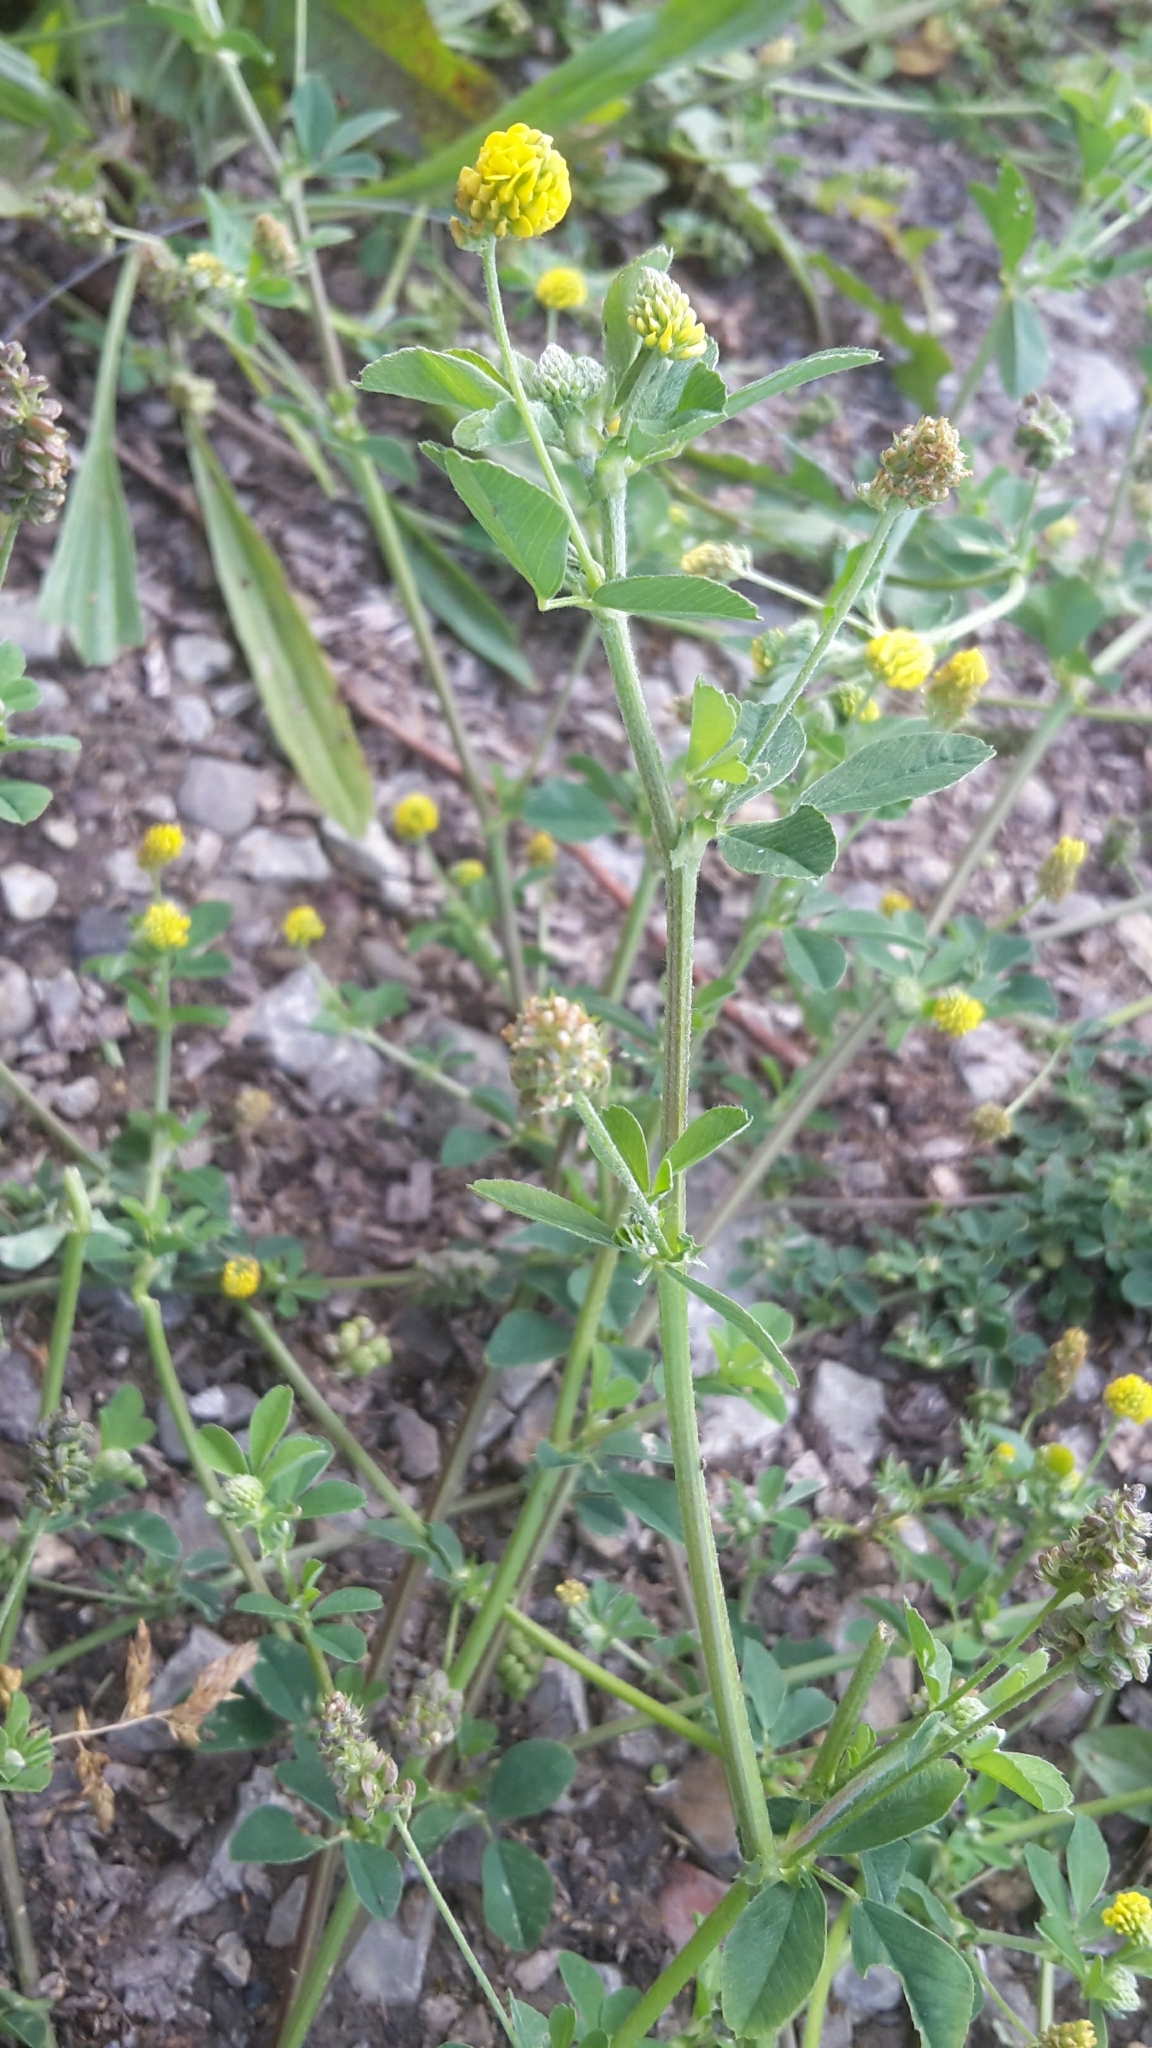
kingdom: Plantae
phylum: Tracheophyta
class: Magnoliopsida
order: Fabales
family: Fabaceae
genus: Medicago
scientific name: Medicago lupulina
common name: Black medick
